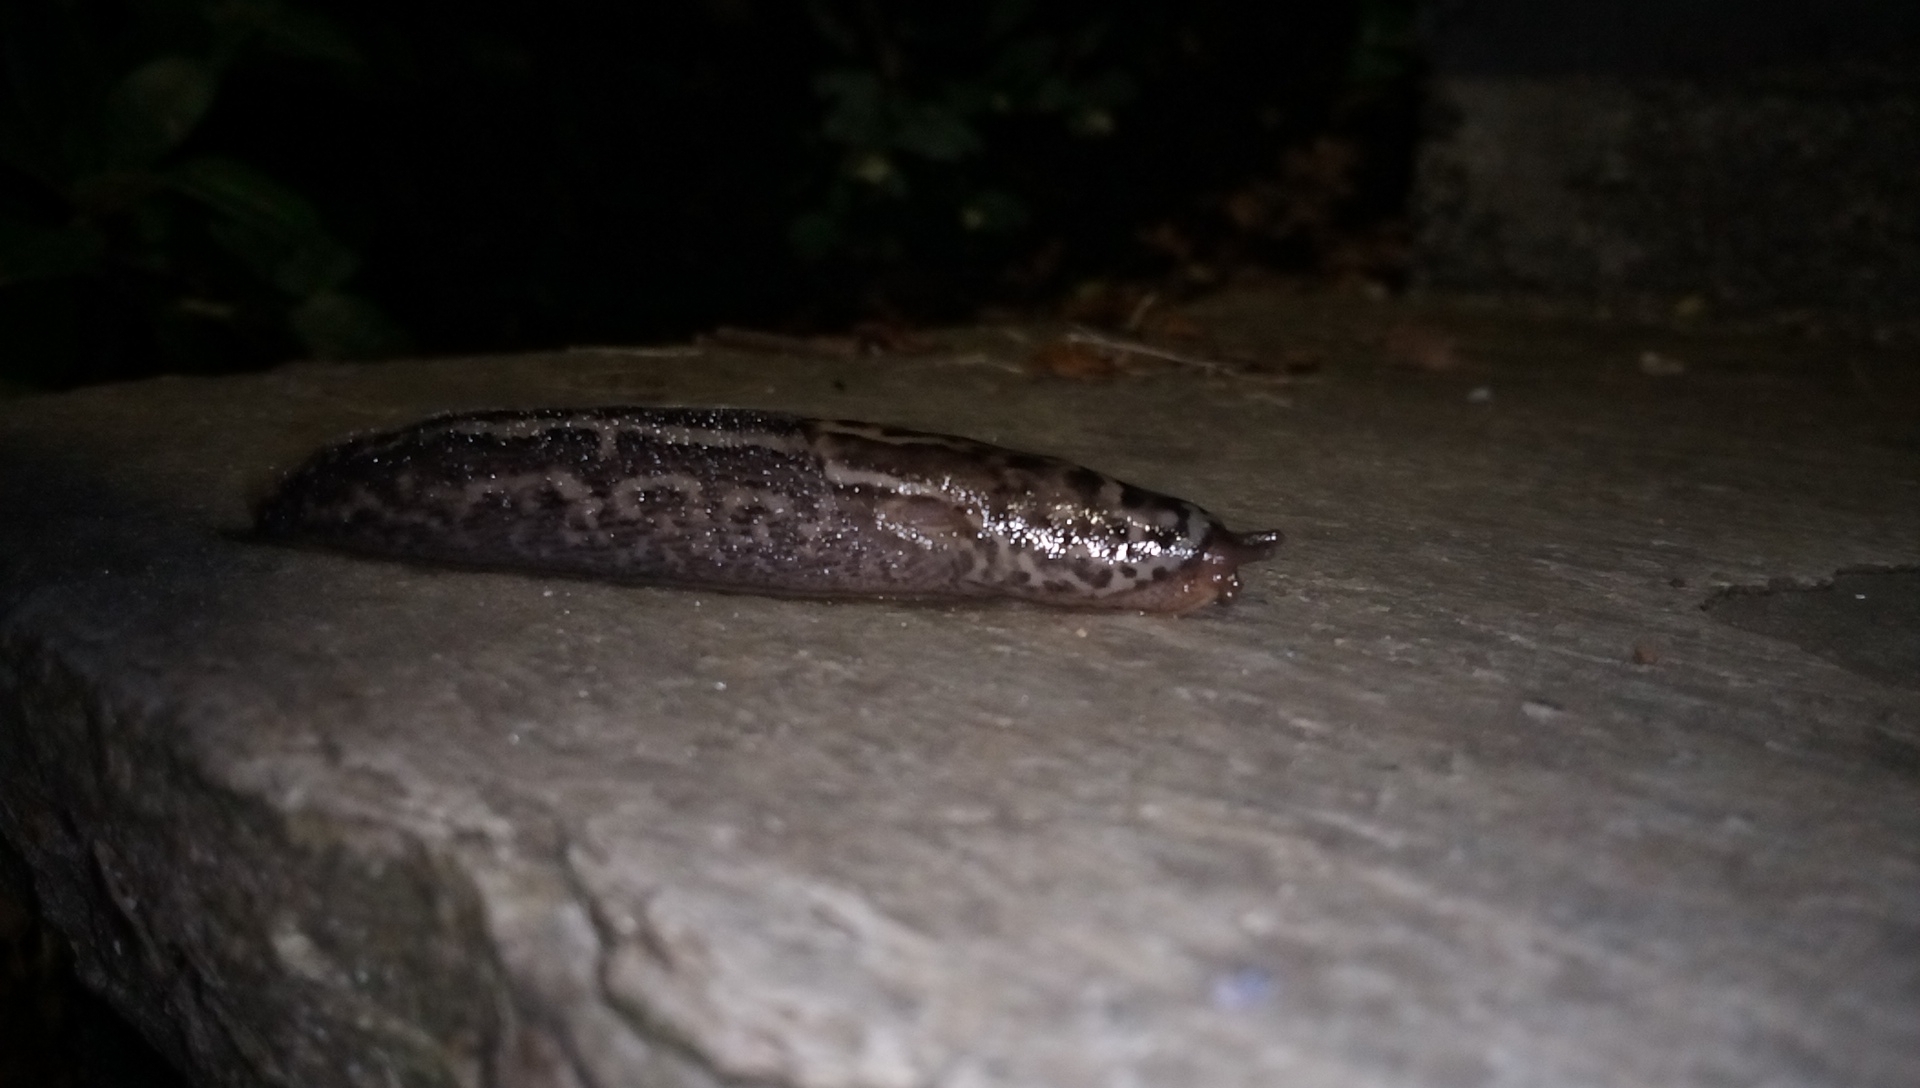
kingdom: Animalia
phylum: Mollusca
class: Gastropoda
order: Stylommatophora
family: Limacidae
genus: Limax
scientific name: Limax maximus
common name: Great grey slug
